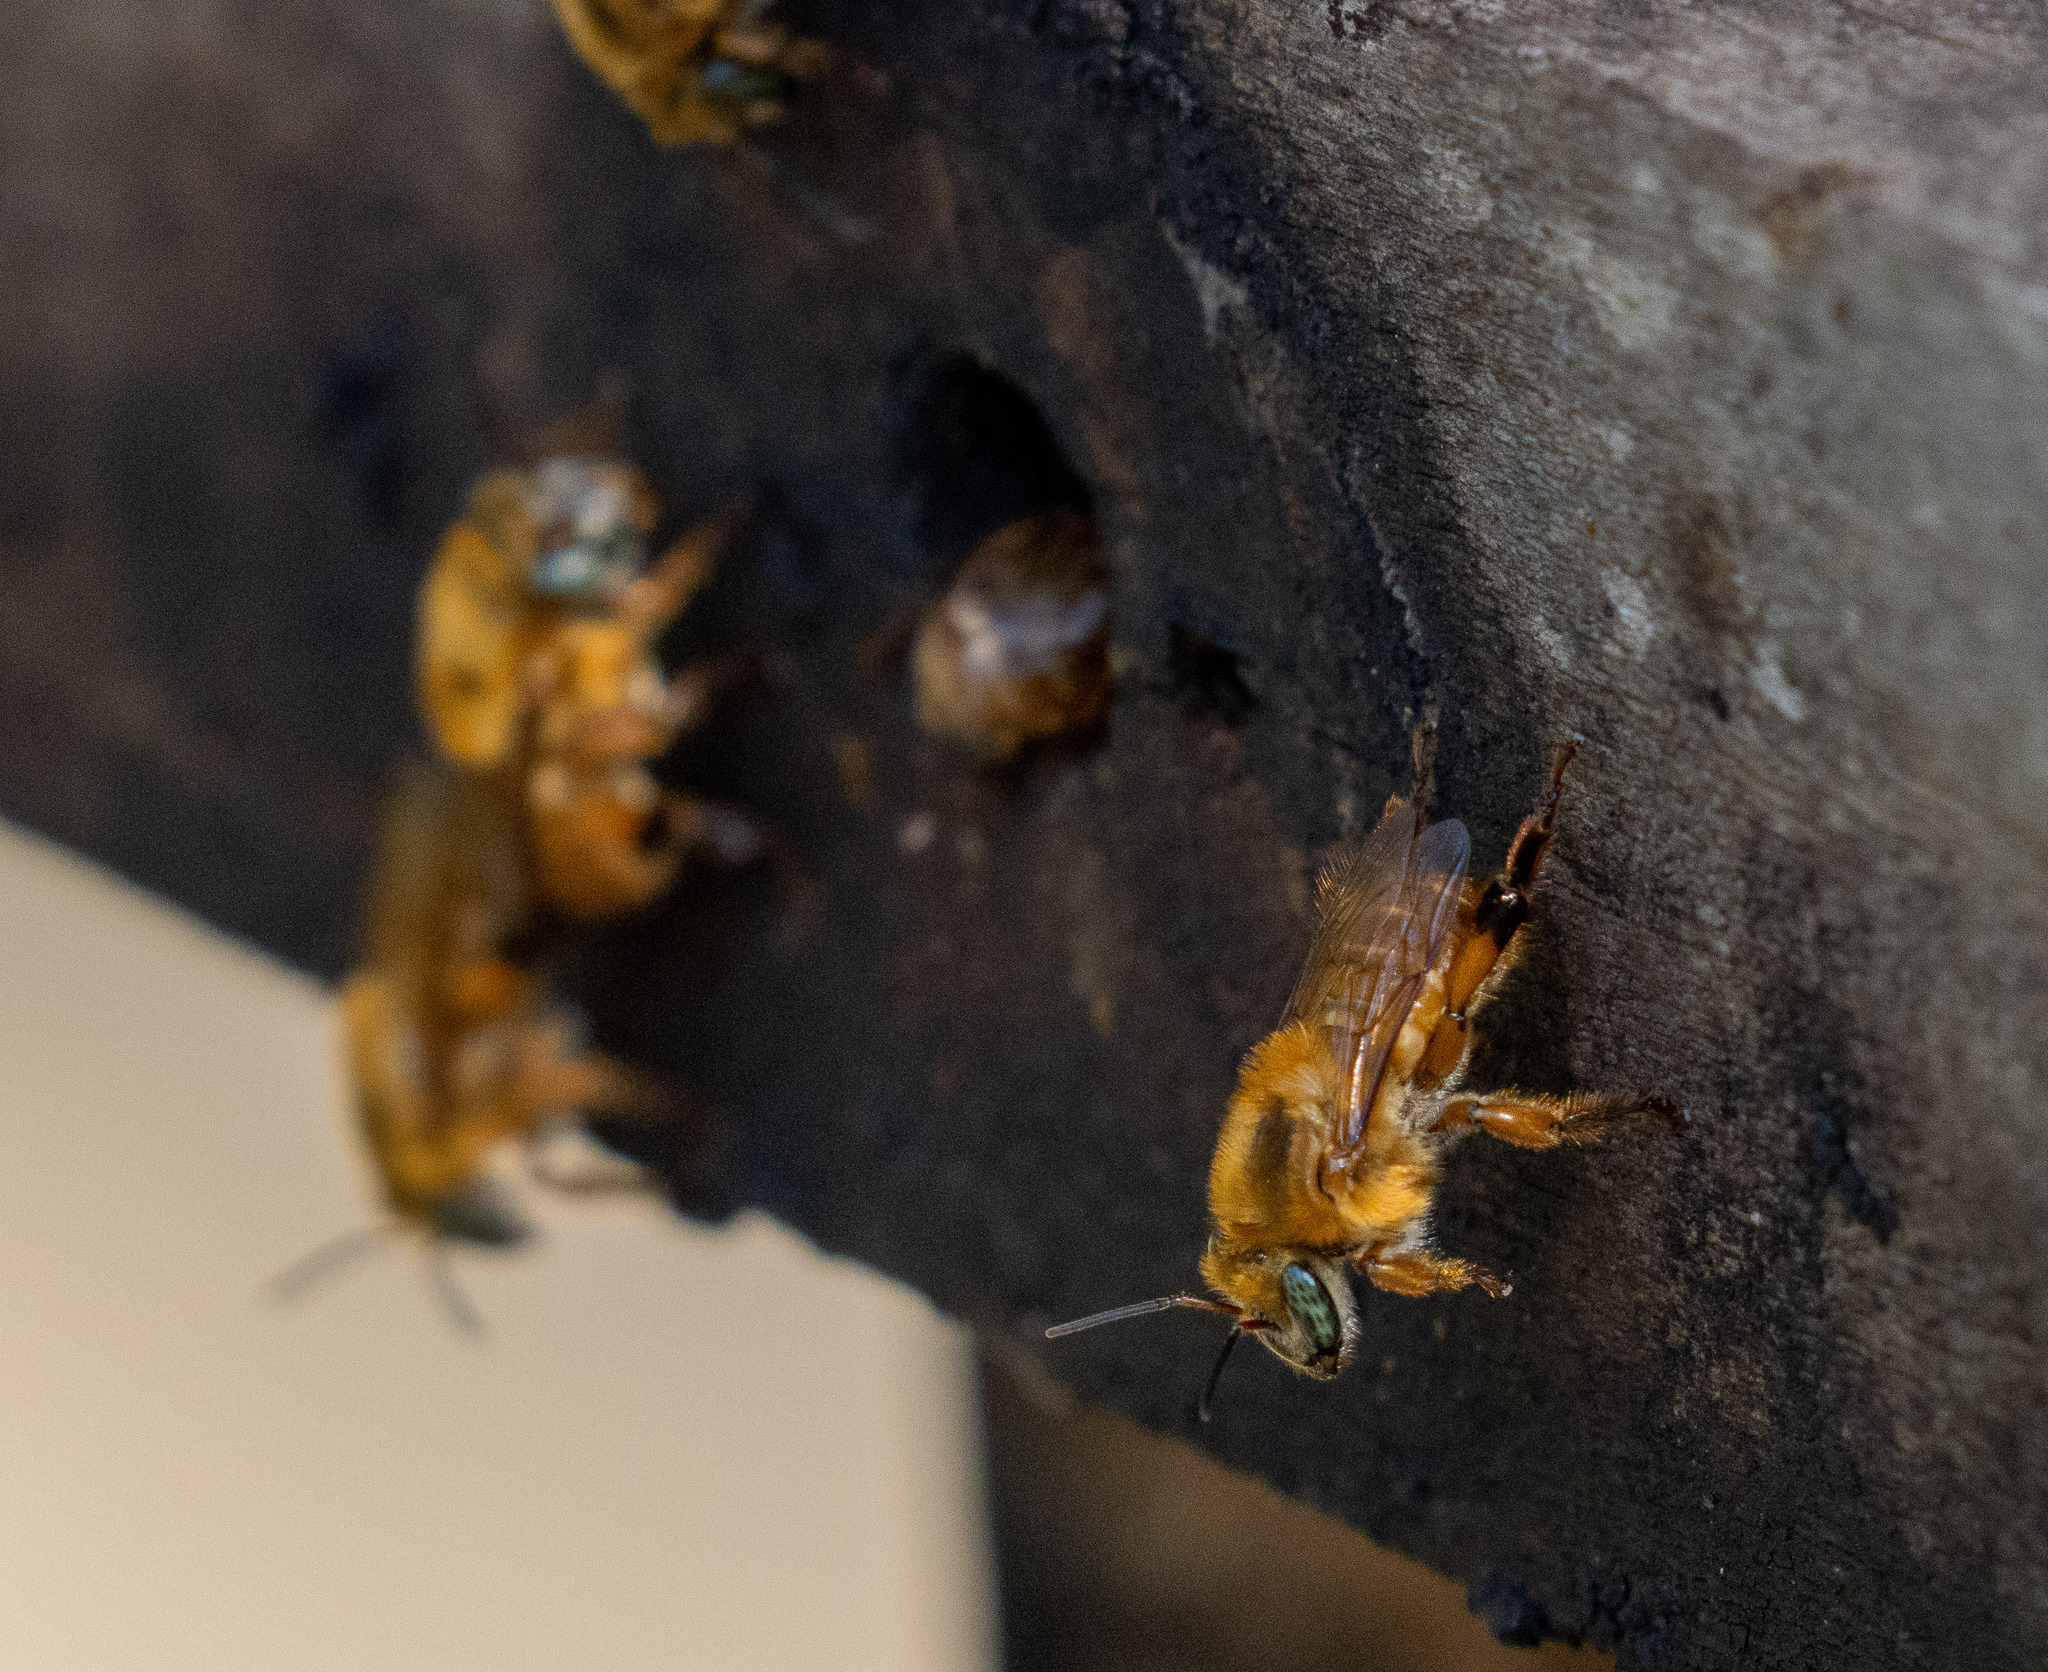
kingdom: Animalia
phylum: Arthropoda
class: Insecta
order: Hymenoptera
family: Apidae
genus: Melipona
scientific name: Melipona rufiventris
